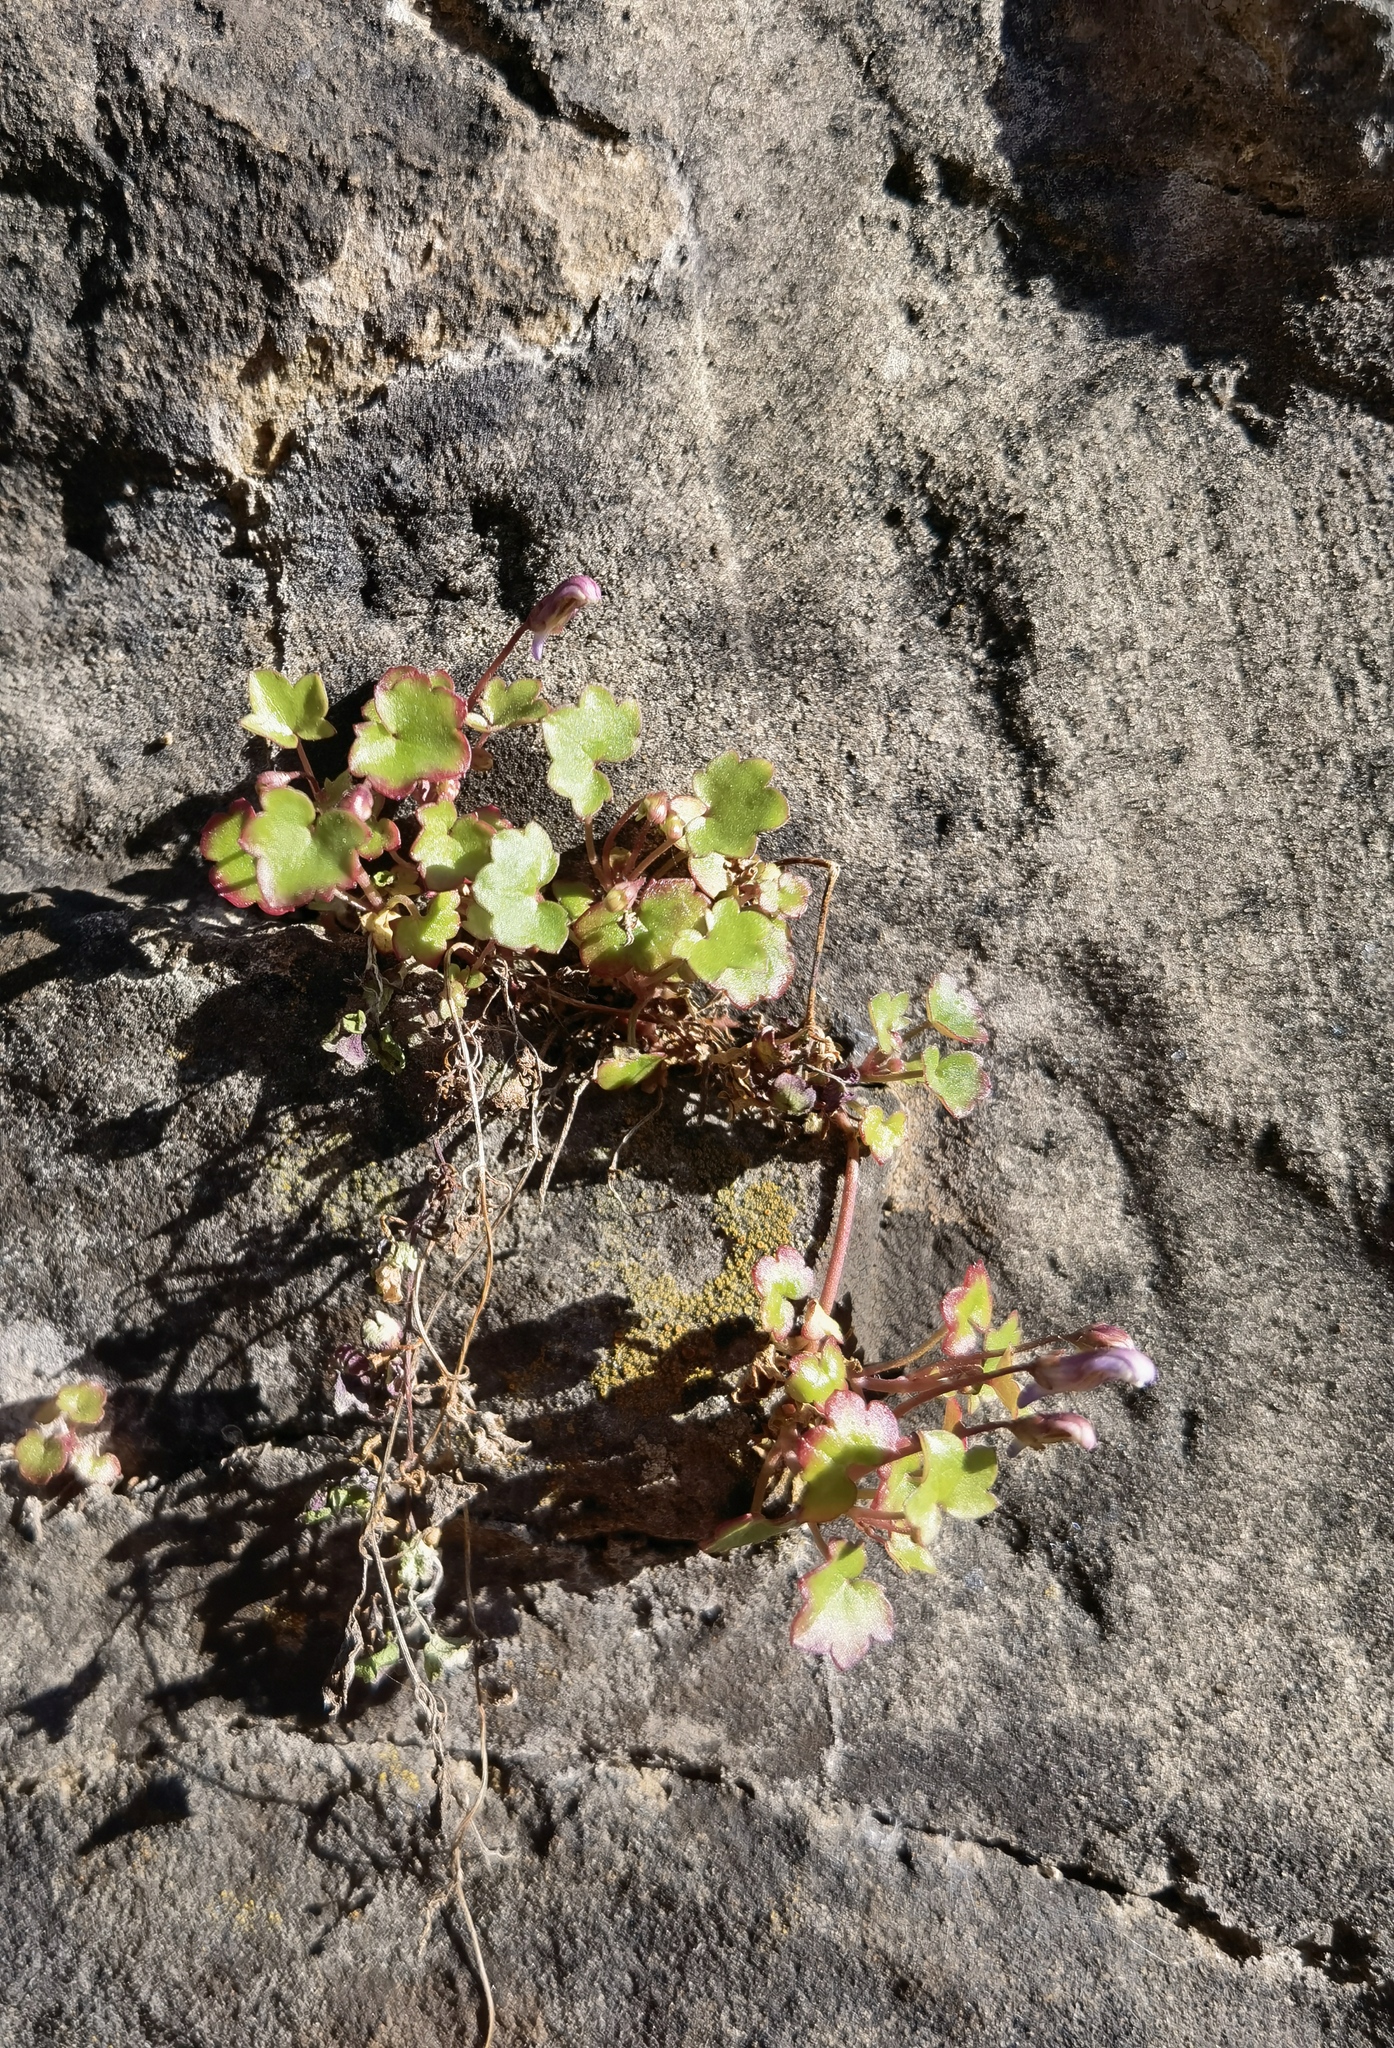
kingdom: Plantae
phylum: Tracheophyta
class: Magnoliopsida
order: Lamiales
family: Plantaginaceae
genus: Cymbalaria
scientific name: Cymbalaria muralis
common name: Ivy-leaved toadflax
